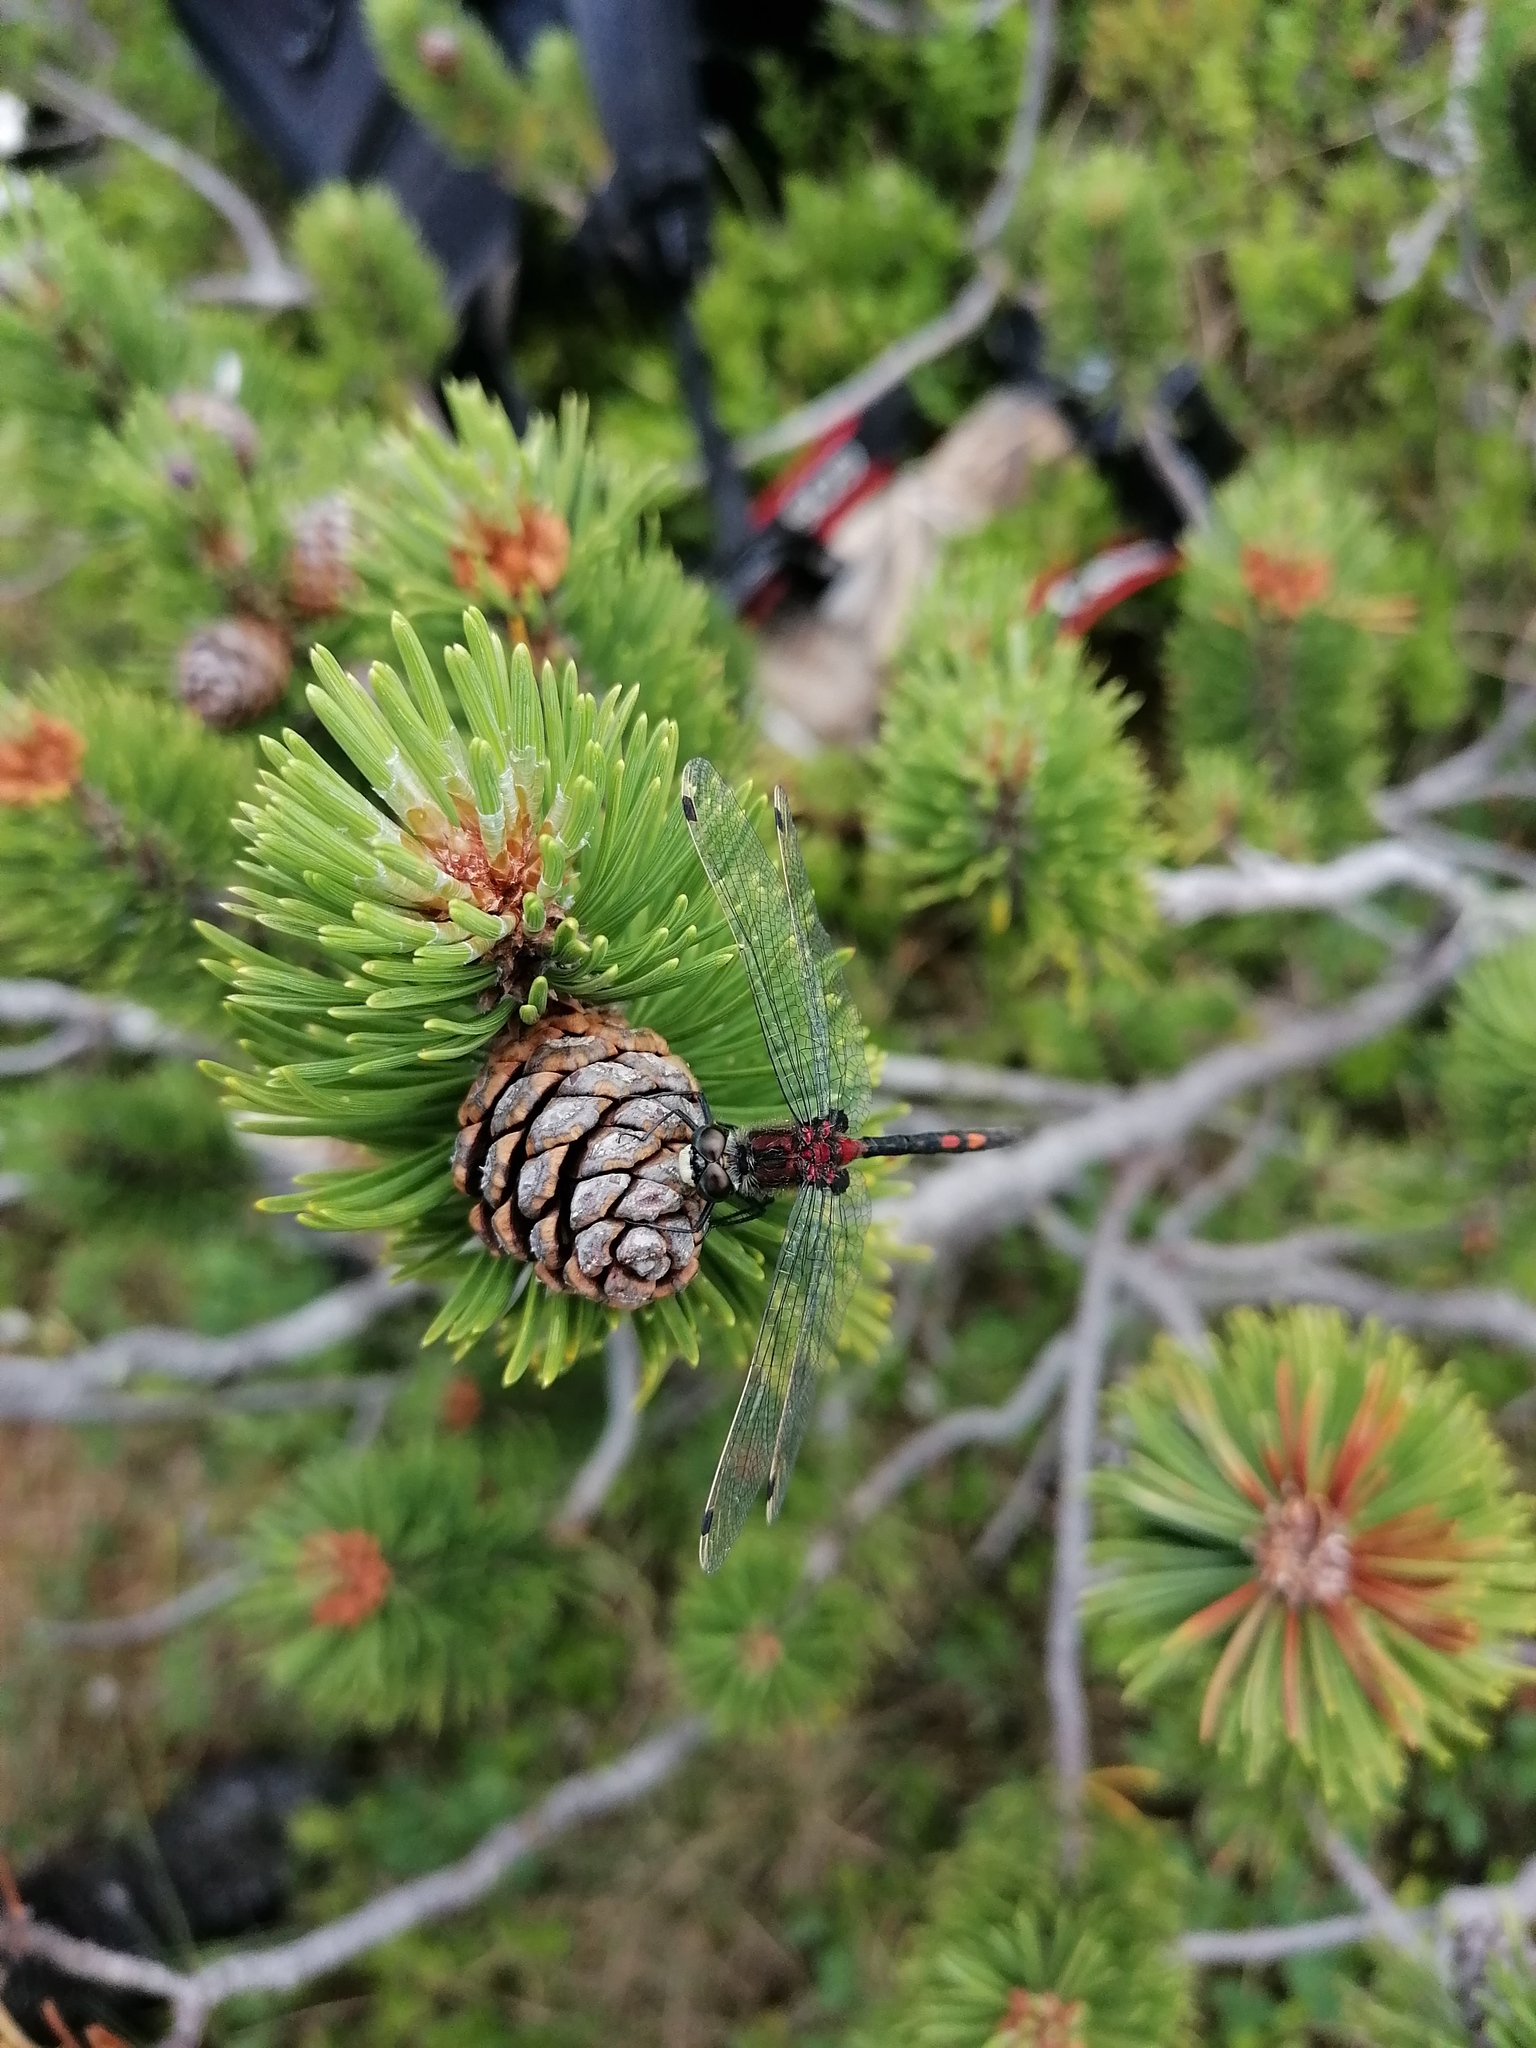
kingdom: Animalia
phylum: Arthropoda
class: Insecta
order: Odonata
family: Libellulidae
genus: Leucorrhinia
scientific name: Leucorrhinia dubia
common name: White-faced darter
